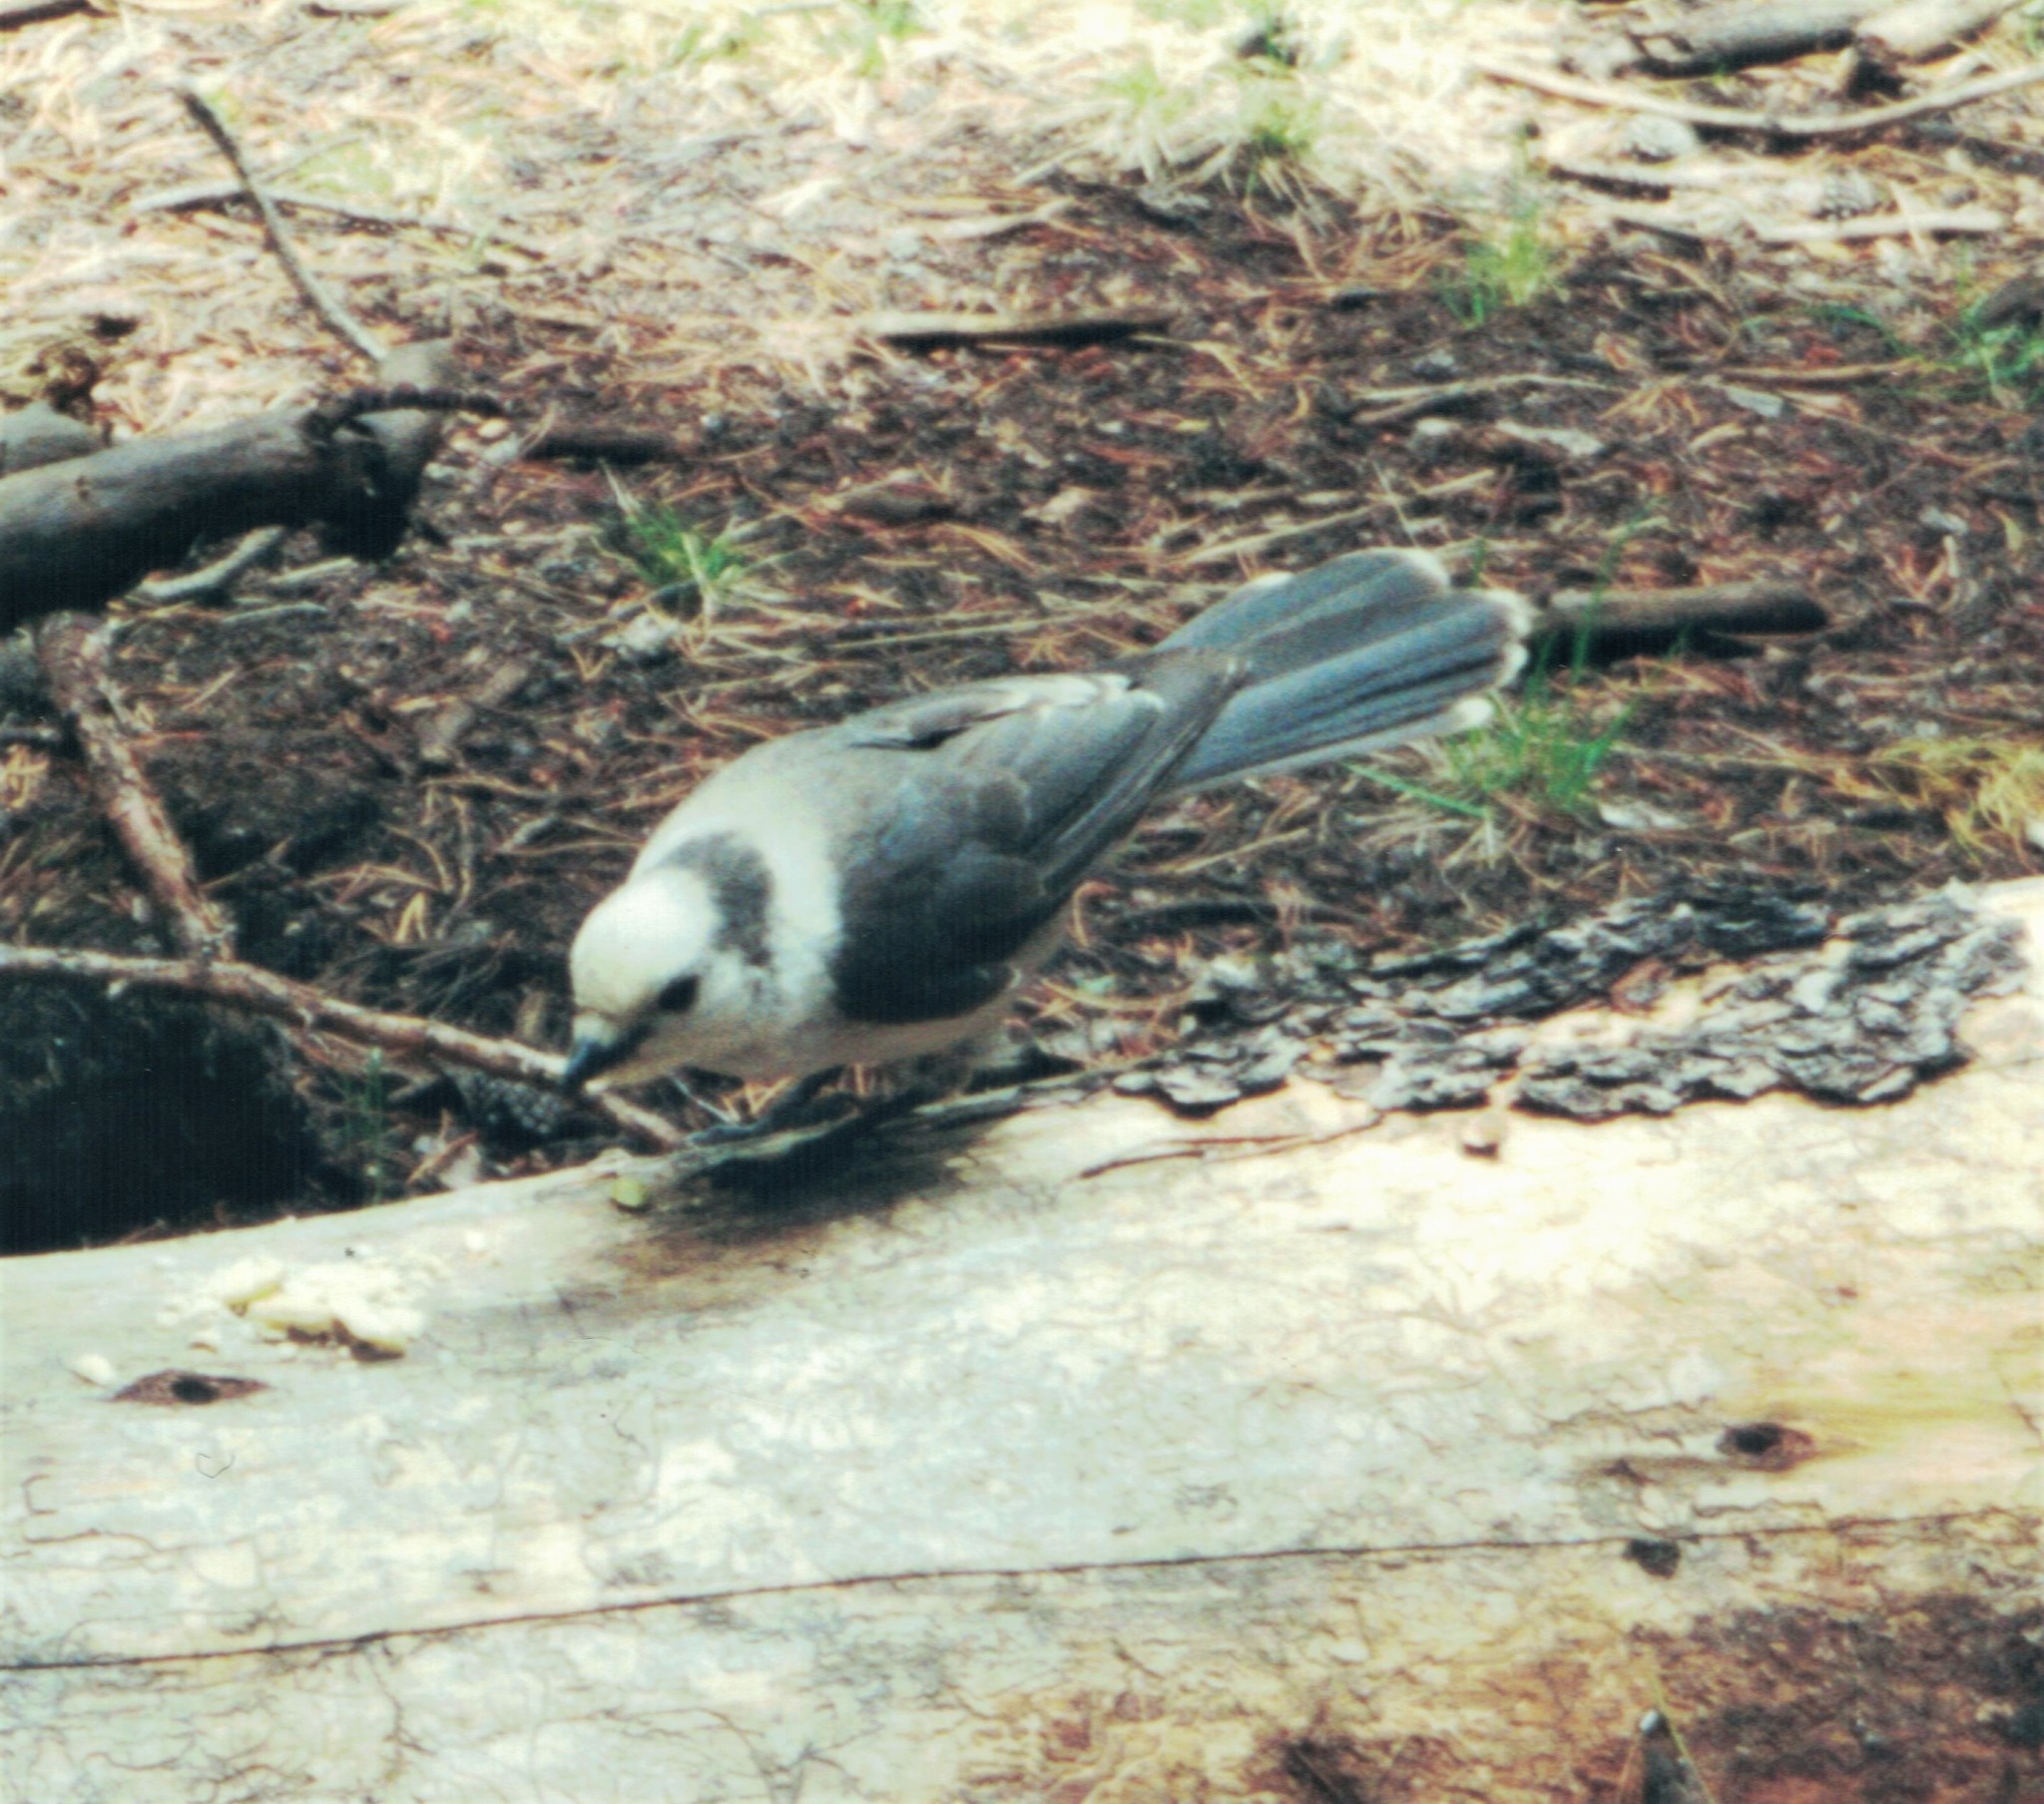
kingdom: Animalia
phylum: Chordata
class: Aves
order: Passeriformes
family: Corvidae
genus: Perisoreus
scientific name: Perisoreus canadensis
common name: Gray jay
